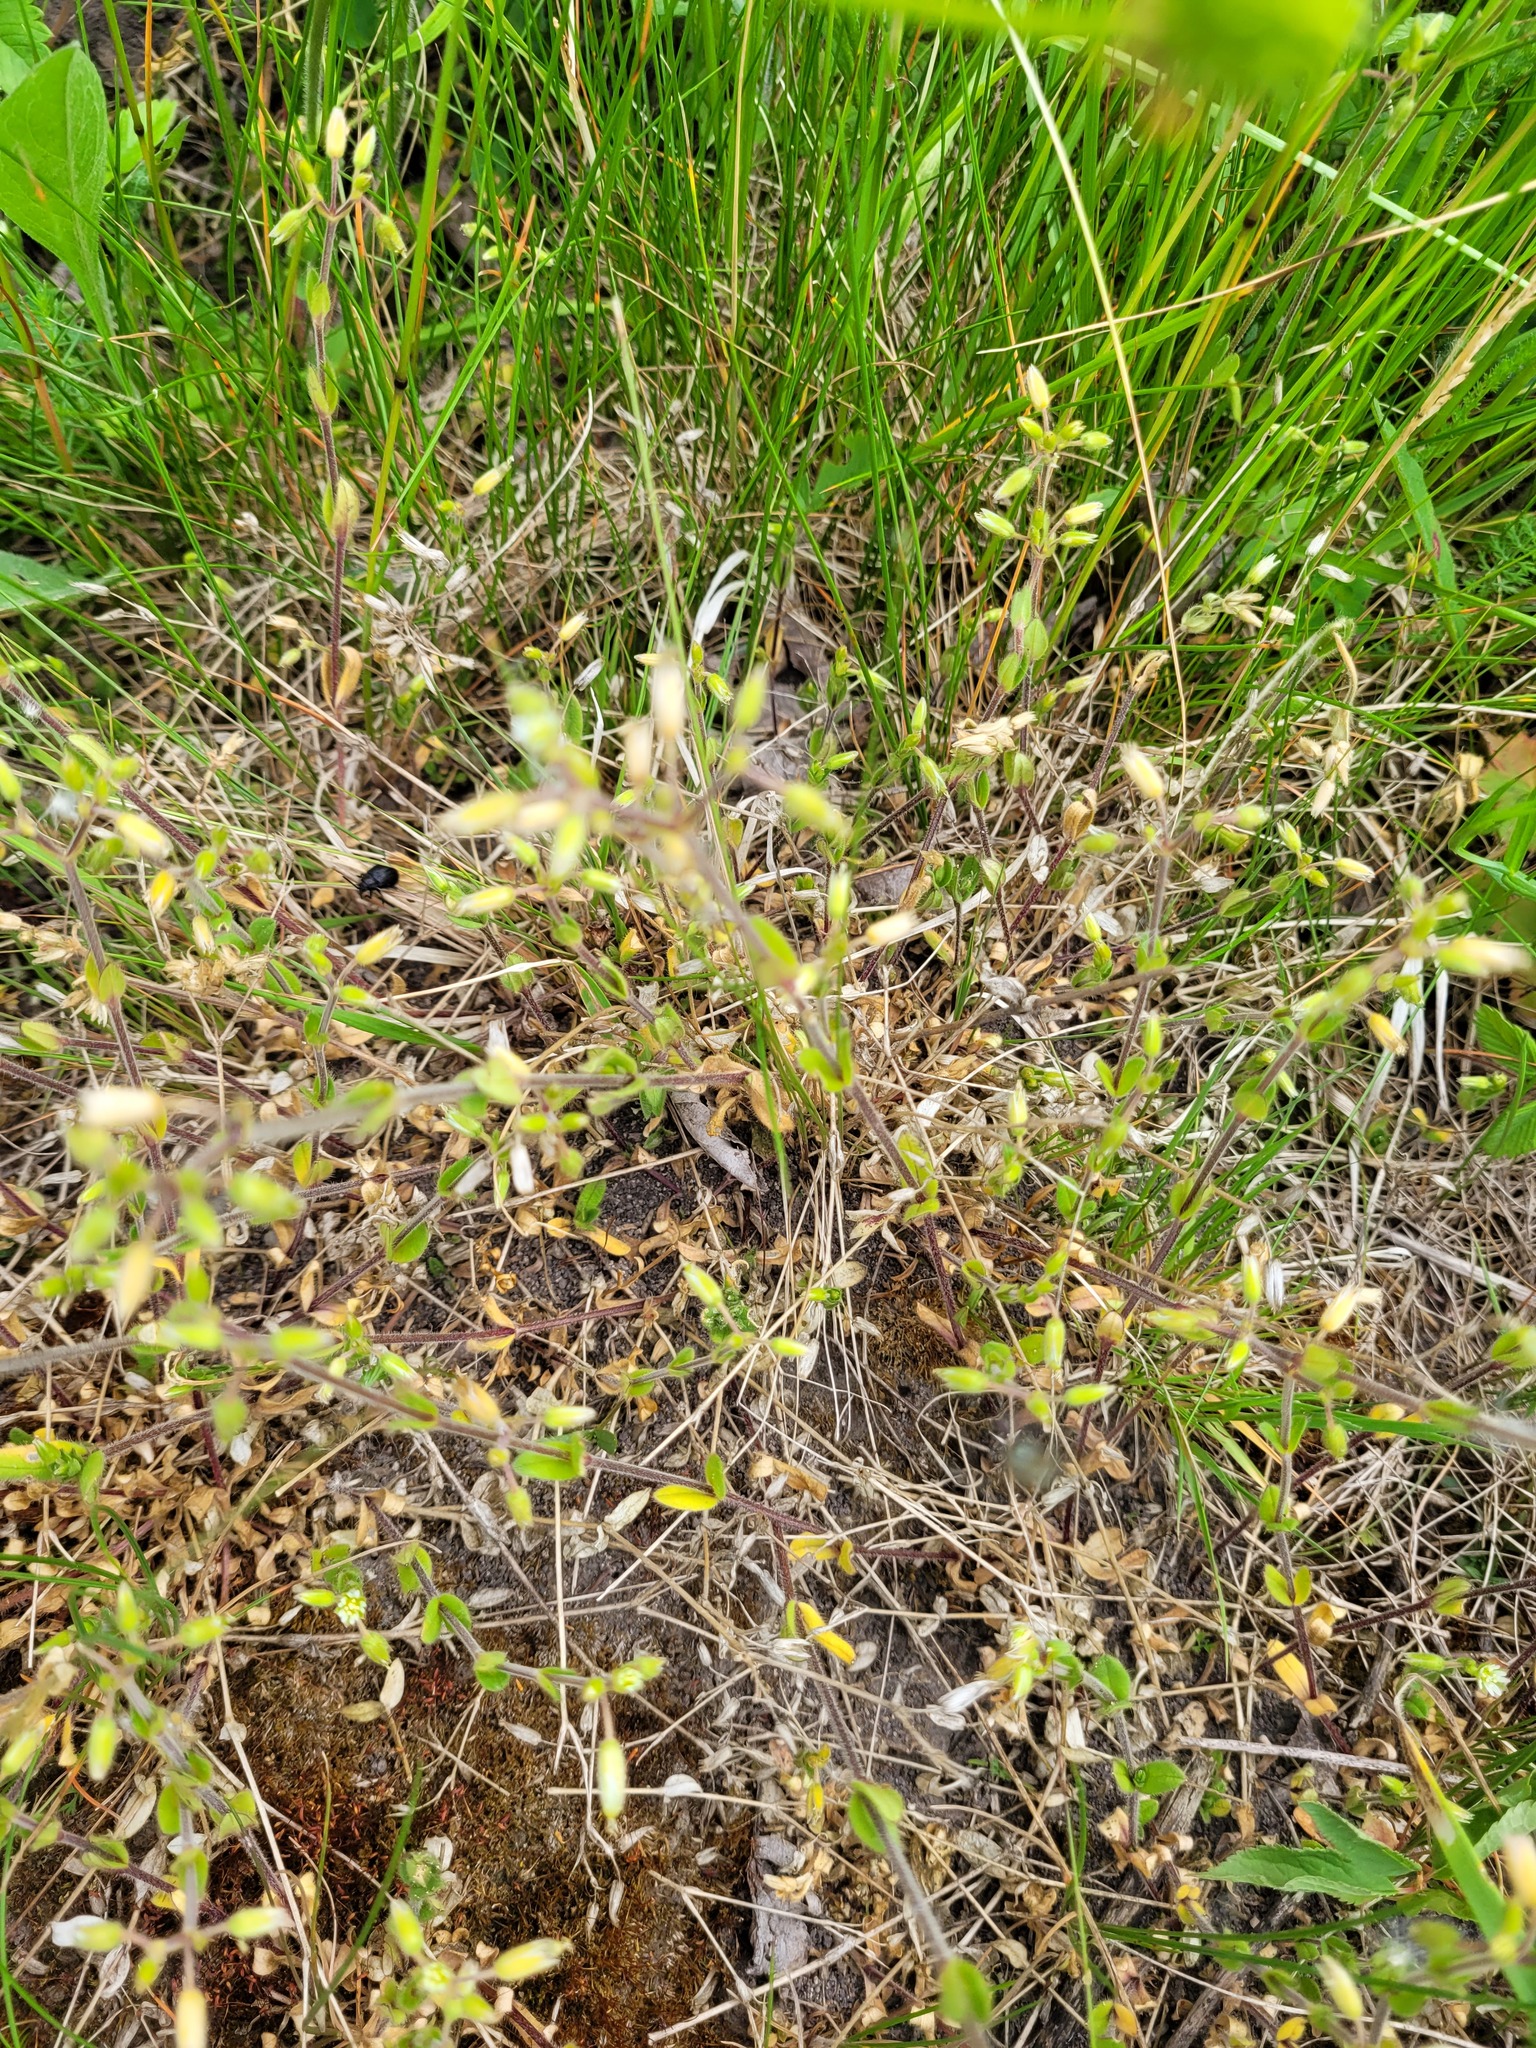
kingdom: Plantae
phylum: Tracheophyta
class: Magnoliopsida
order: Caryophyllales
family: Caryophyllaceae
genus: Cerastium
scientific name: Cerastium holosteoides
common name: Big chickweed
